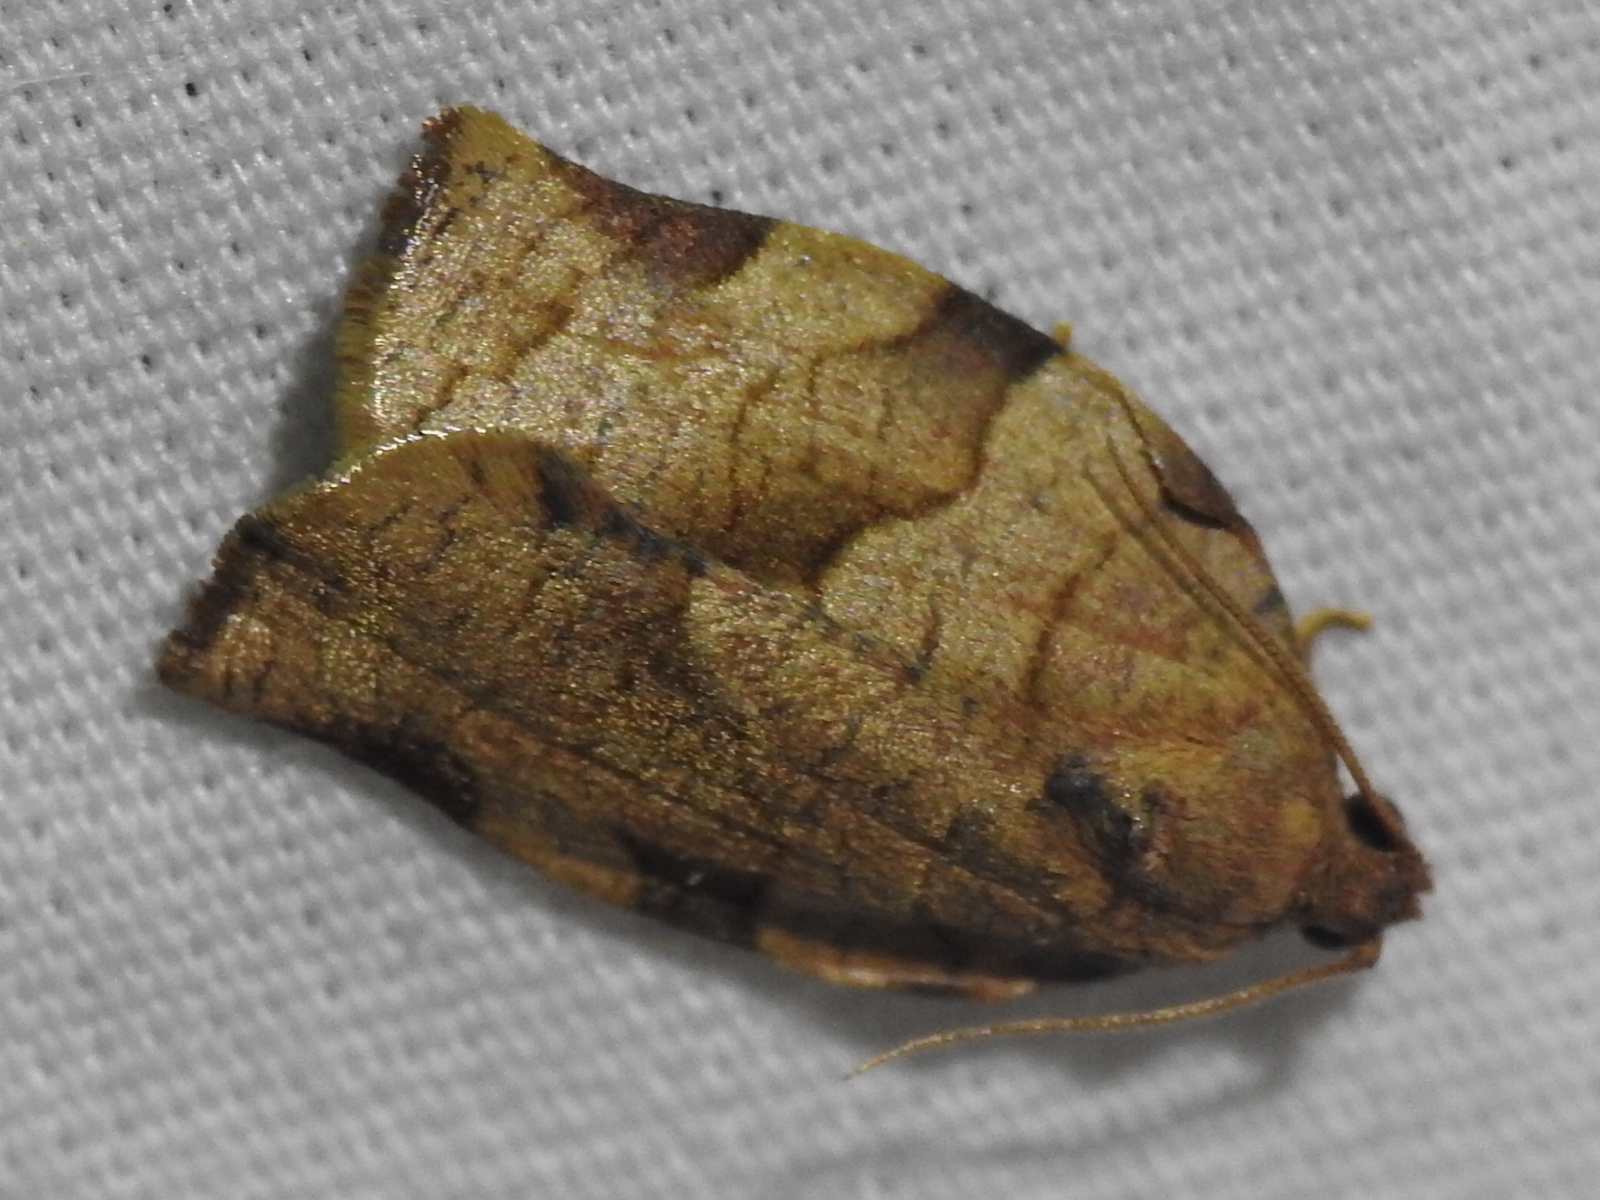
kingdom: Animalia
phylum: Arthropoda
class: Insecta
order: Lepidoptera
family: Tortricidae
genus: Choristoneura
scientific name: Choristoneura rosaceana
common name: Oblique-banded leafroller moth
